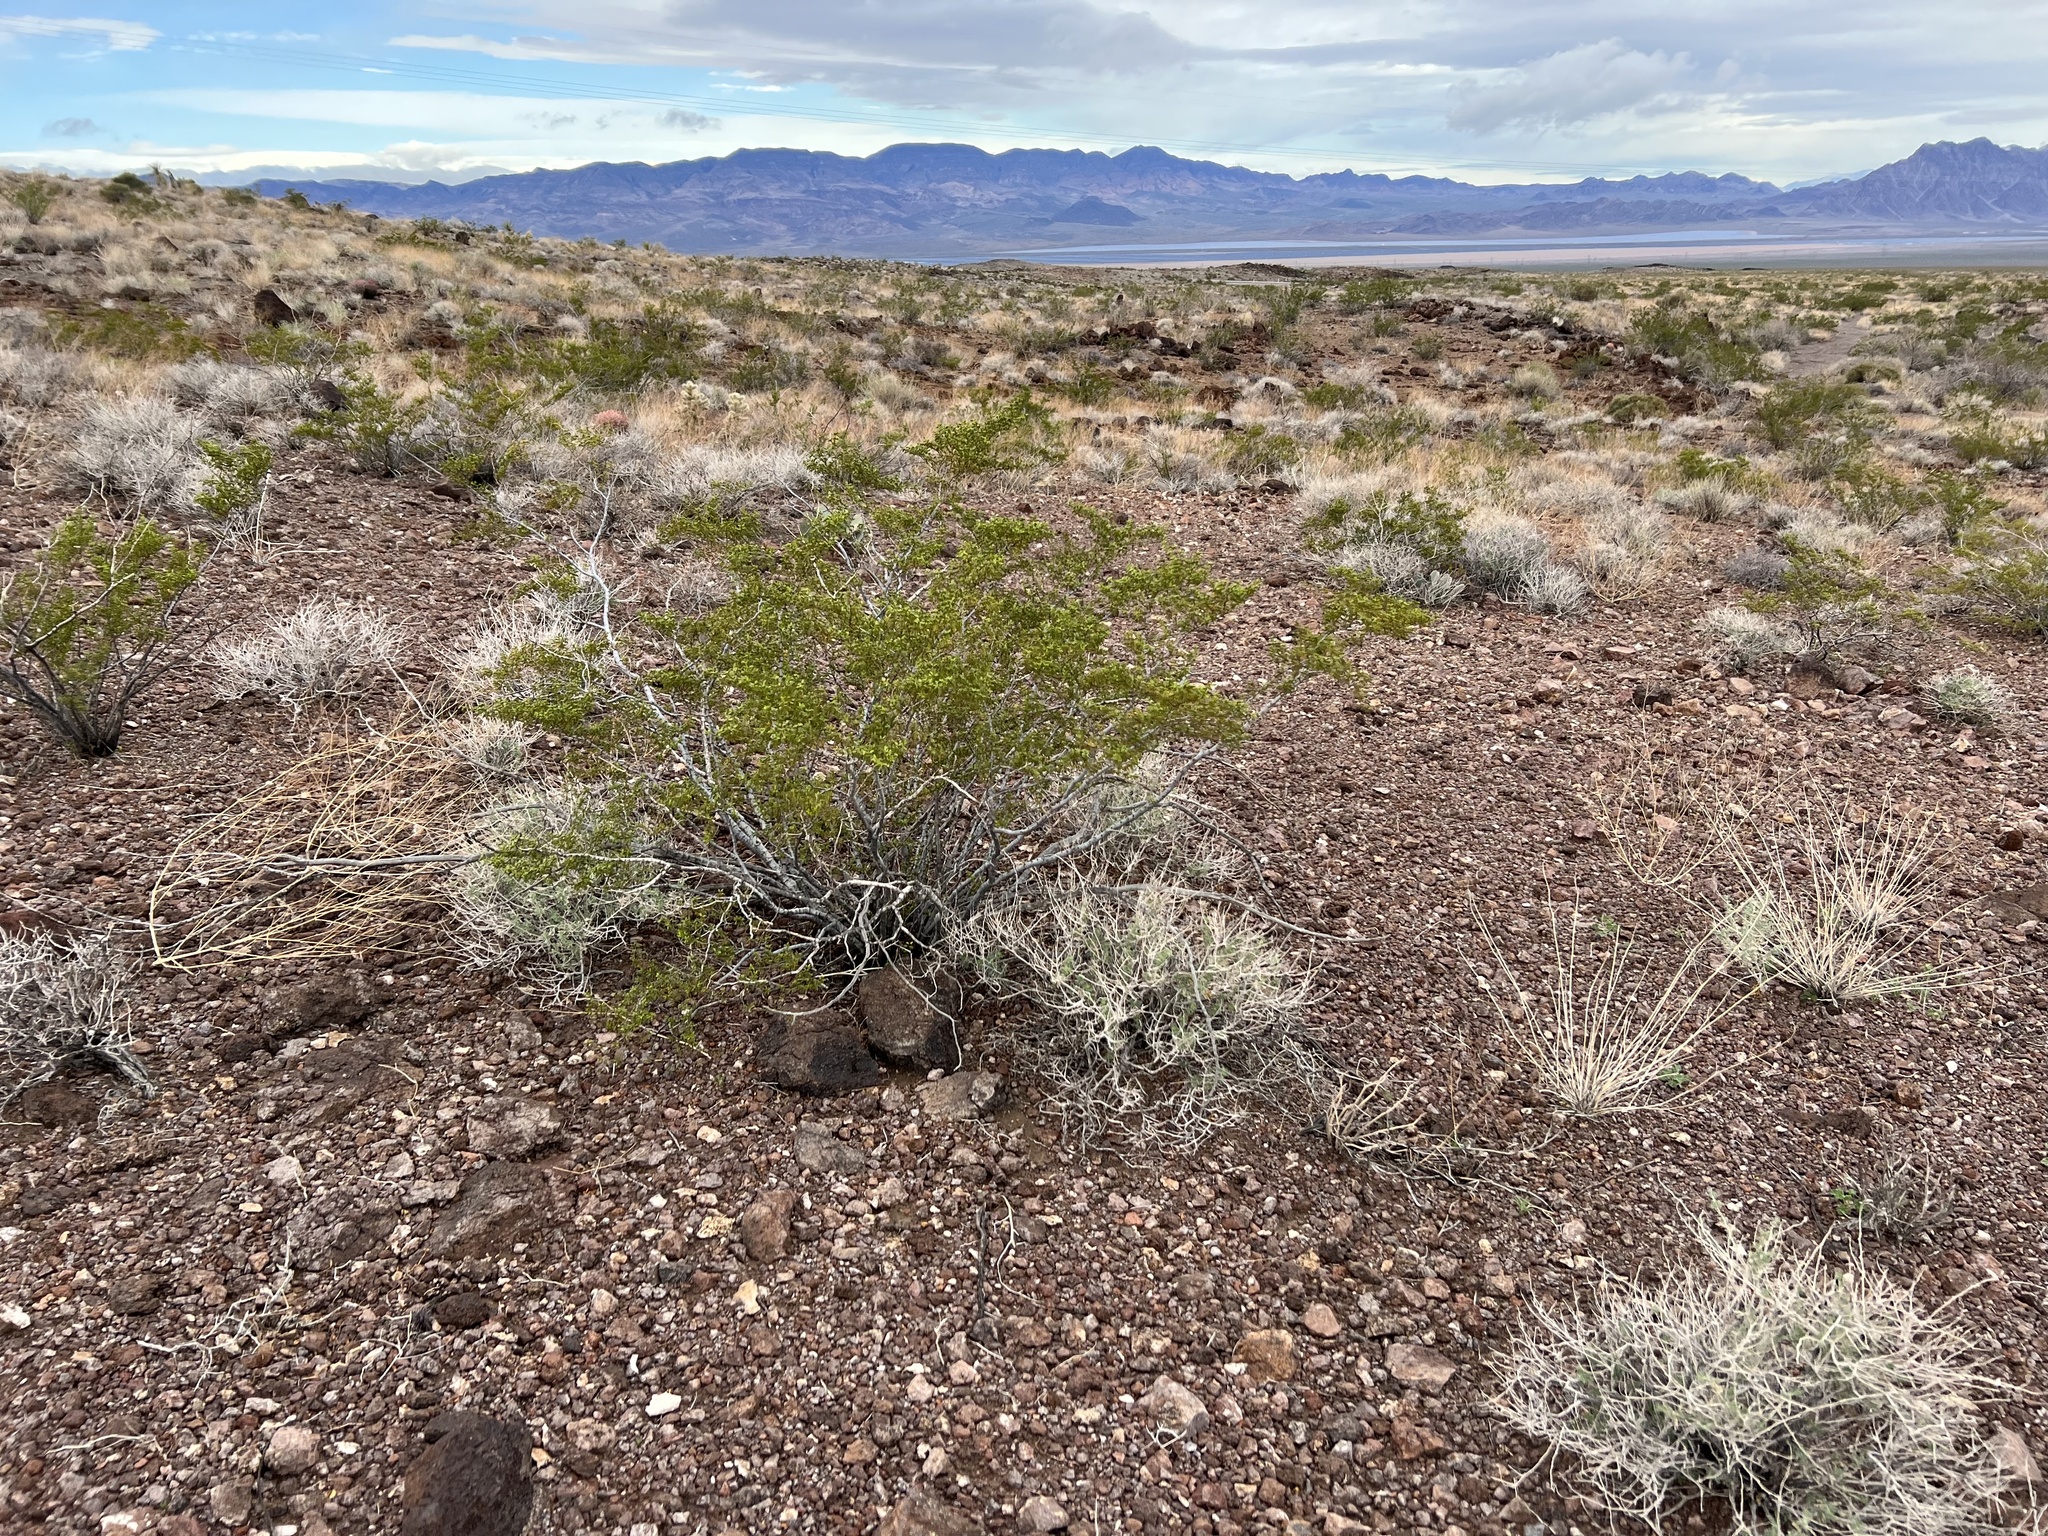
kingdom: Plantae
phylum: Tracheophyta
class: Magnoliopsida
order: Zygophyllales
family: Zygophyllaceae
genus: Larrea
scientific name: Larrea tridentata
